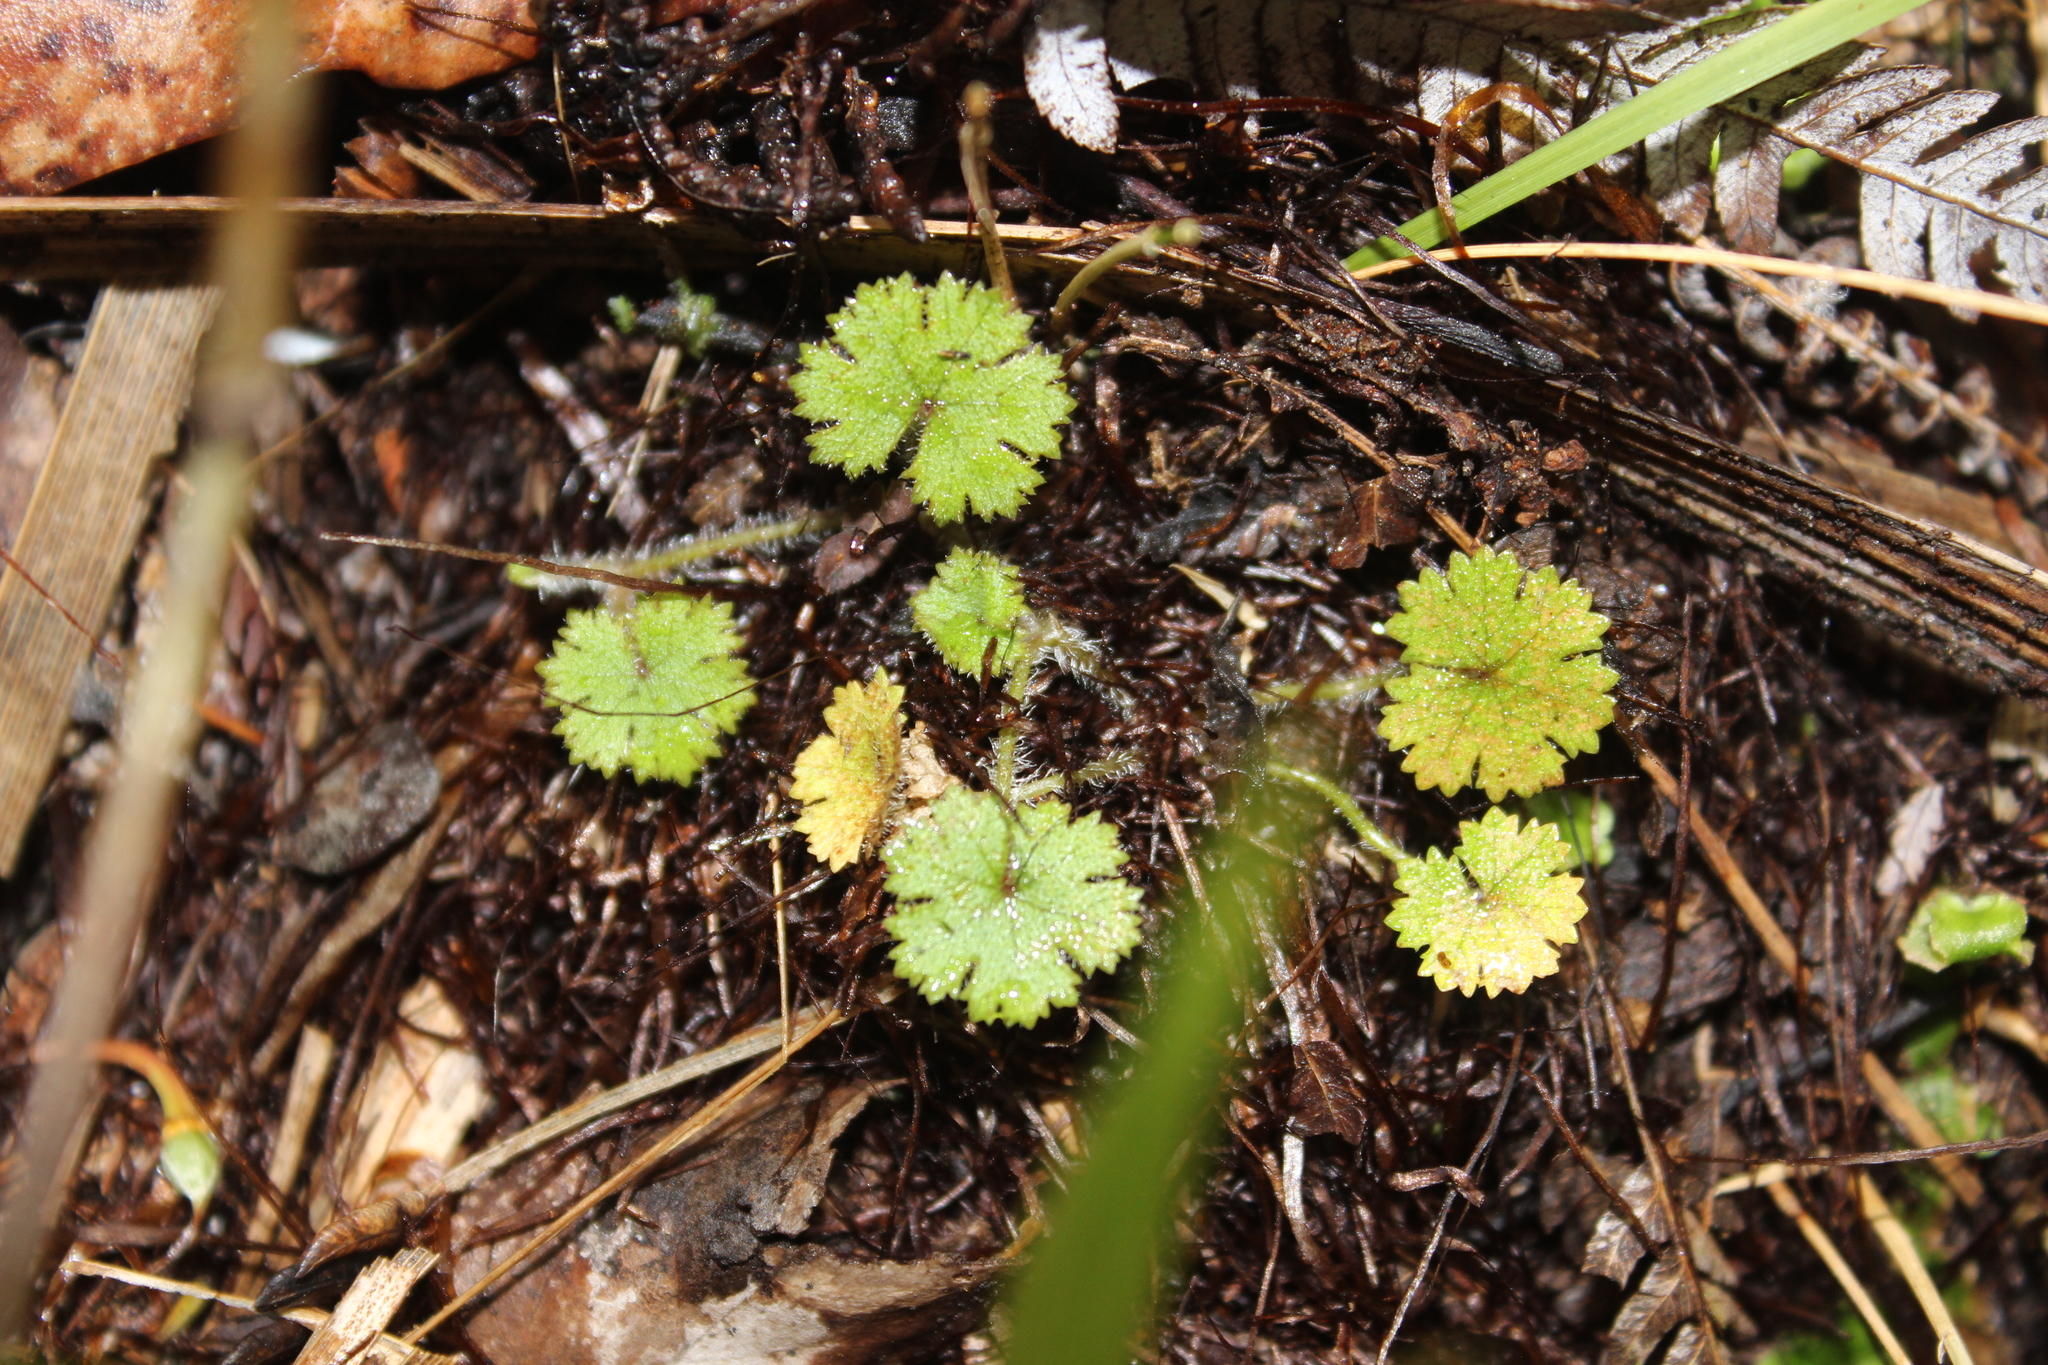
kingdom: Plantae
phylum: Tracheophyta
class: Magnoliopsida
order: Apiales
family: Araliaceae
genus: Hydrocotyle
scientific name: Hydrocotyle moschata
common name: Hairy pennywort
